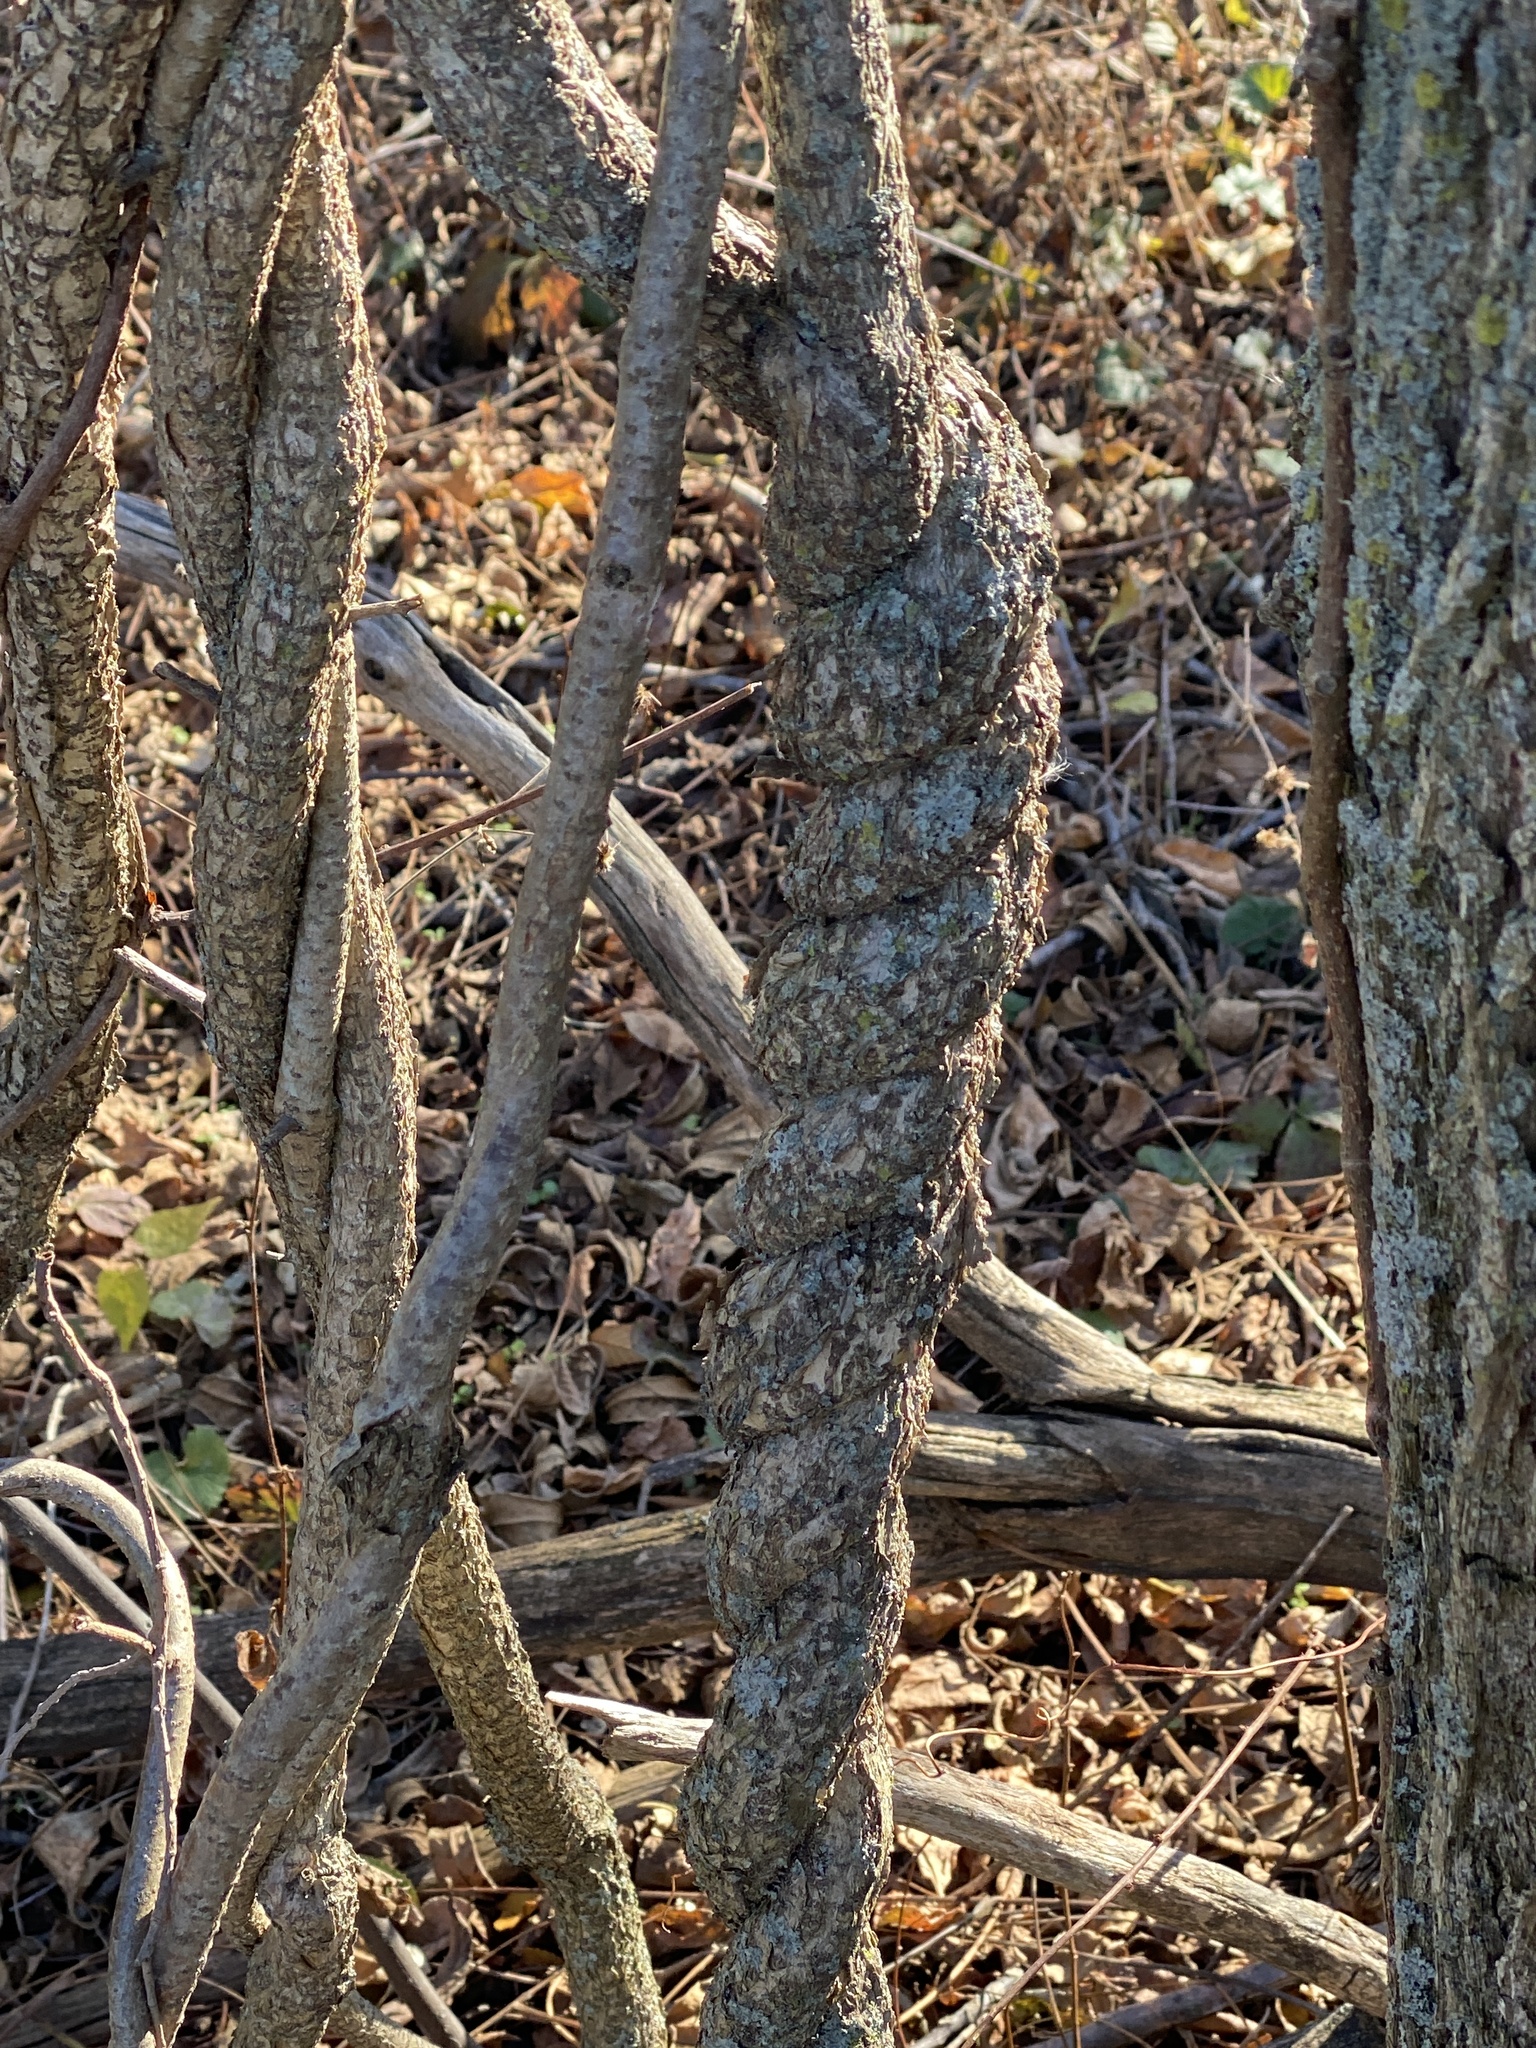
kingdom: Plantae
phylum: Tracheophyta
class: Magnoliopsida
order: Celastrales
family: Celastraceae
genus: Celastrus
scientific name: Celastrus orbiculatus
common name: Oriental bittersweet
